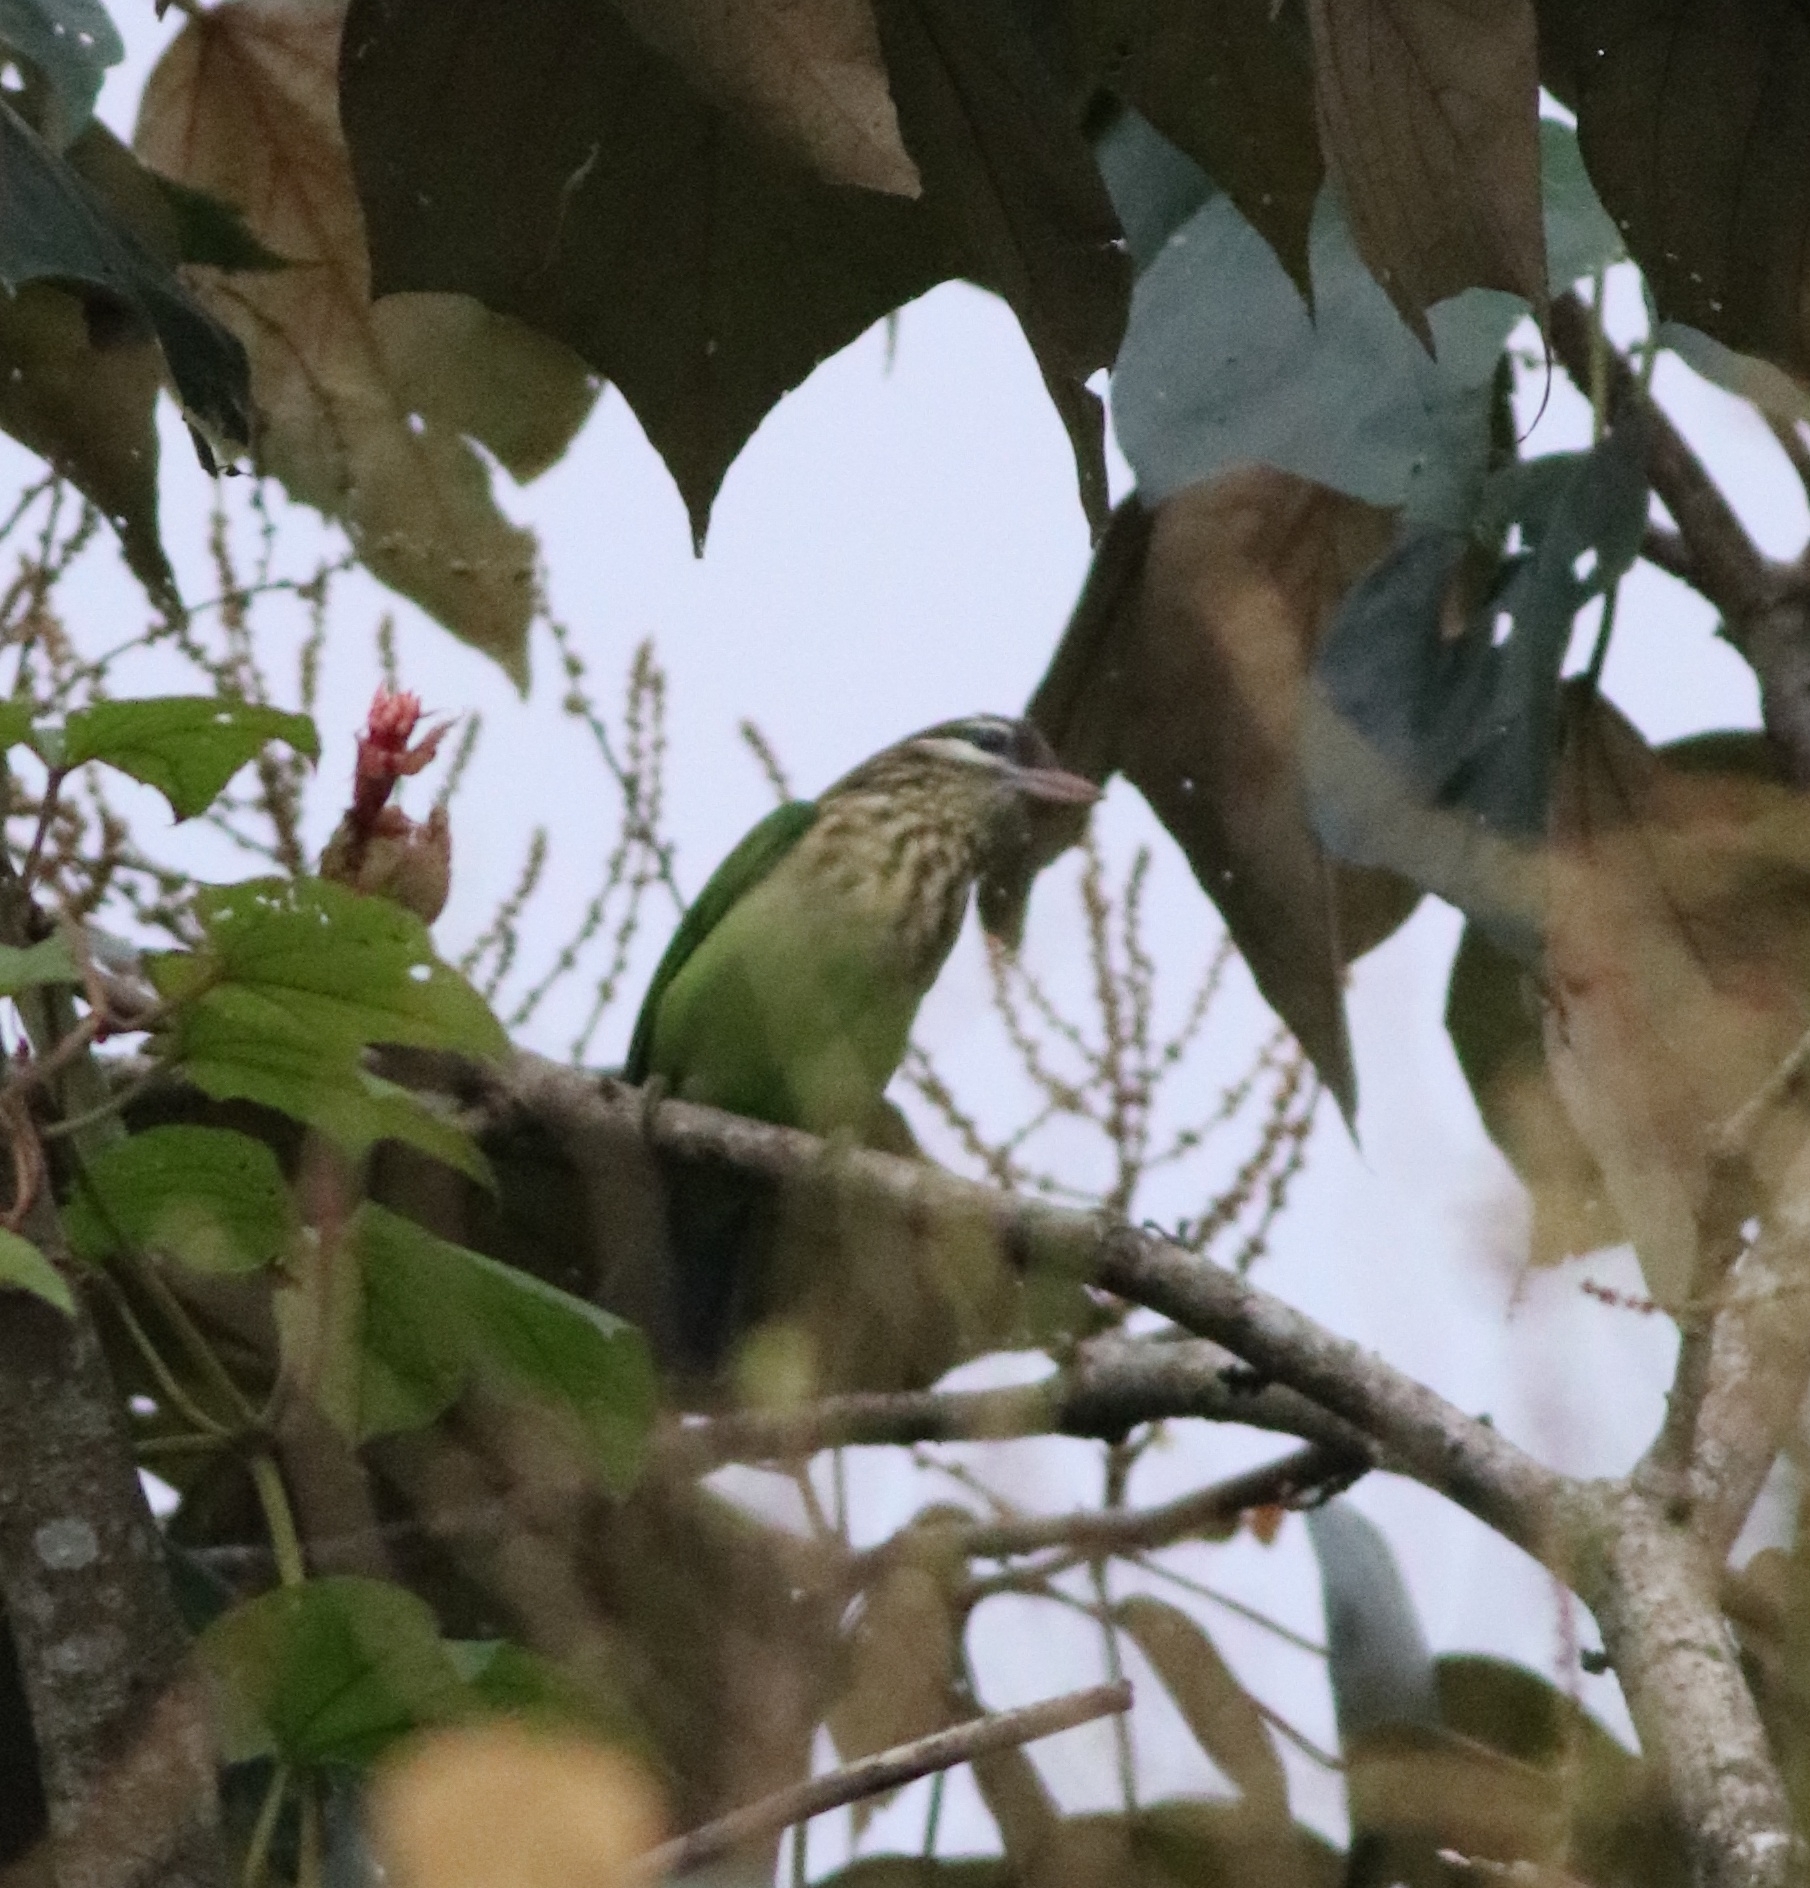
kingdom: Animalia
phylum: Chordata
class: Aves
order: Piciformes
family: Megalaimidae
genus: Psilopogon
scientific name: Psilopogon viridis
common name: White-cheeked barbet
